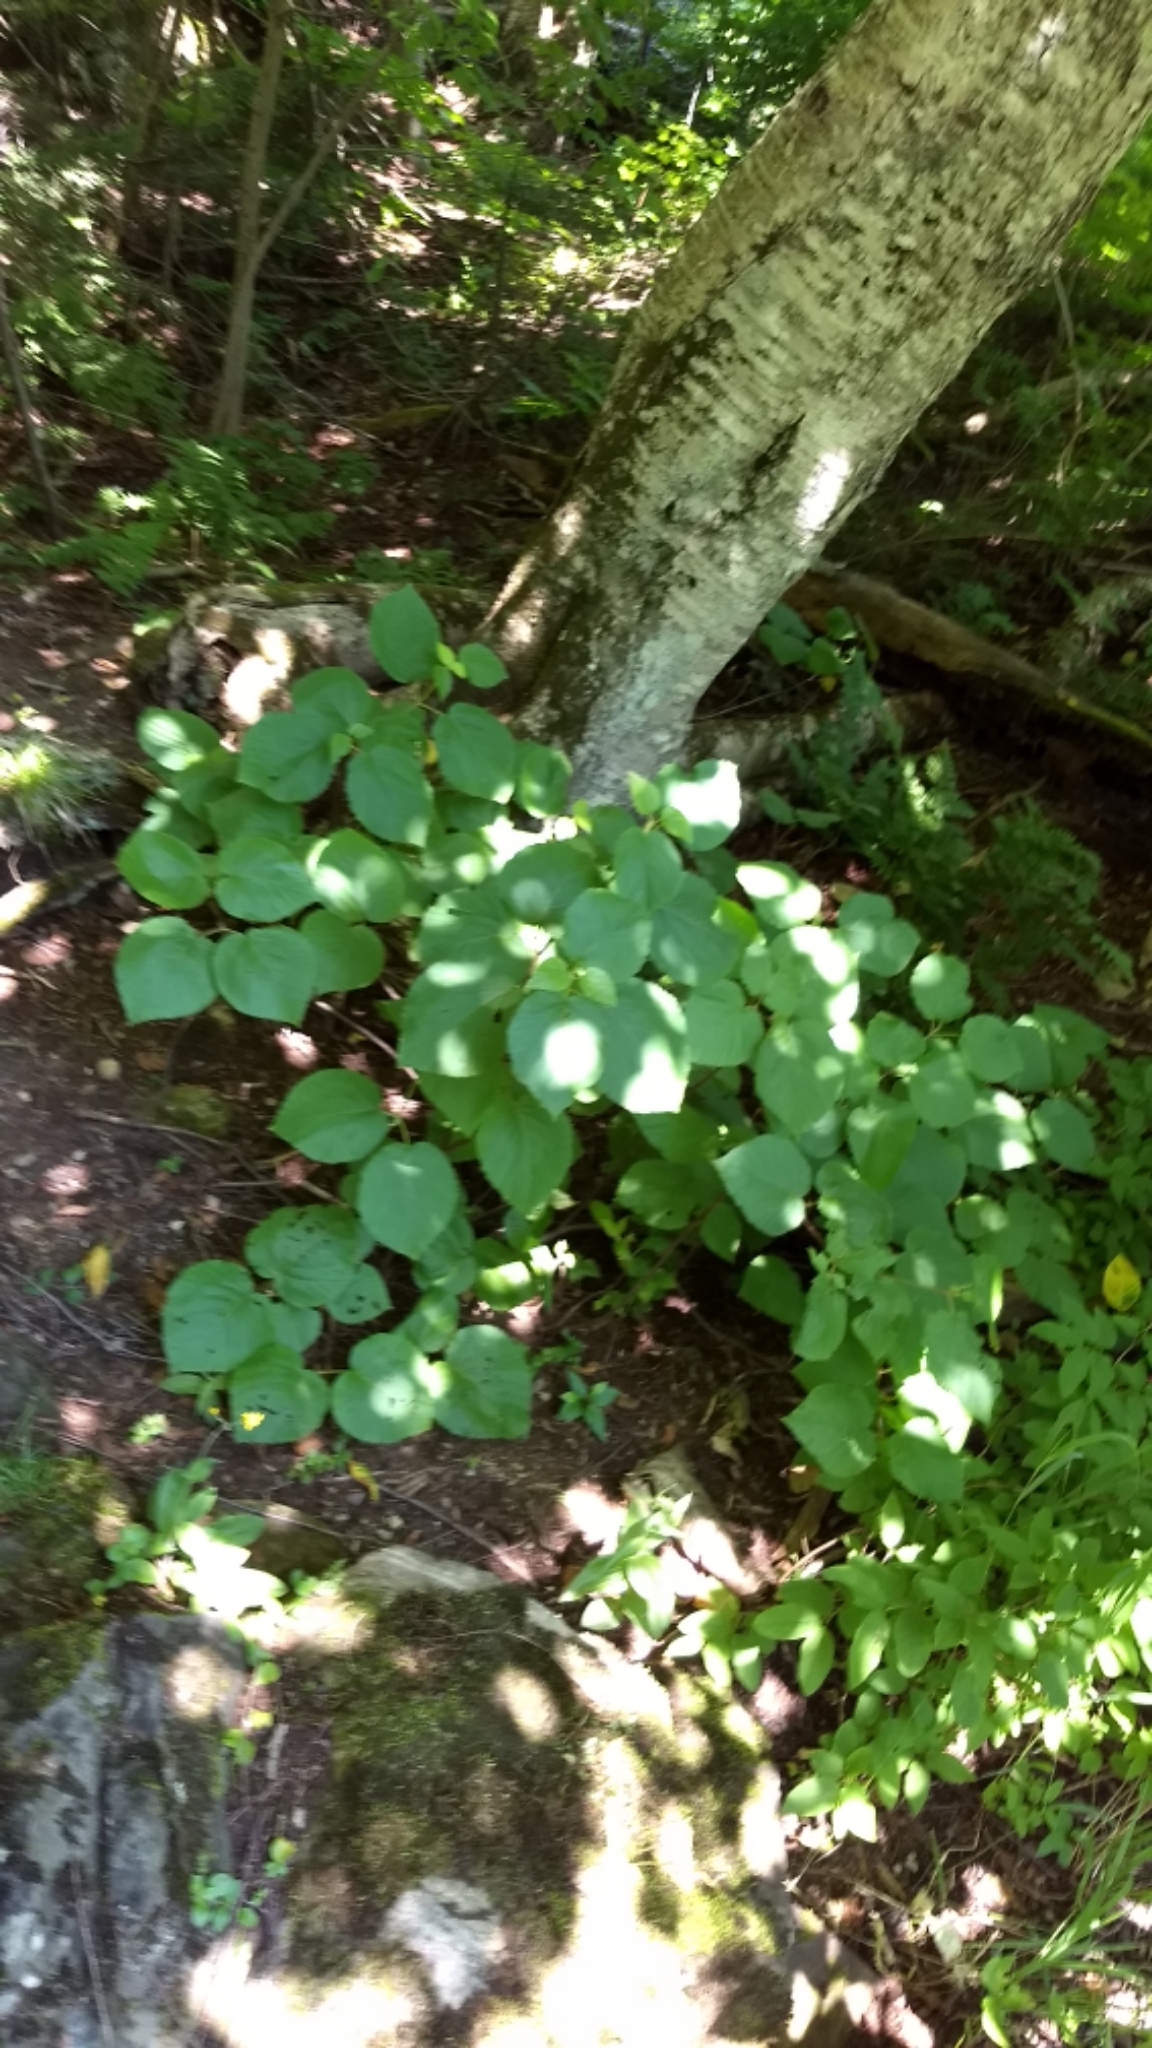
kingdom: Plantae
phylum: Tracheophyta
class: Magnoliopsida
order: Dipsacales
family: Viburnaceae
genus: Viburnum
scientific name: Viburnum lantanoides
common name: Hobblebush
